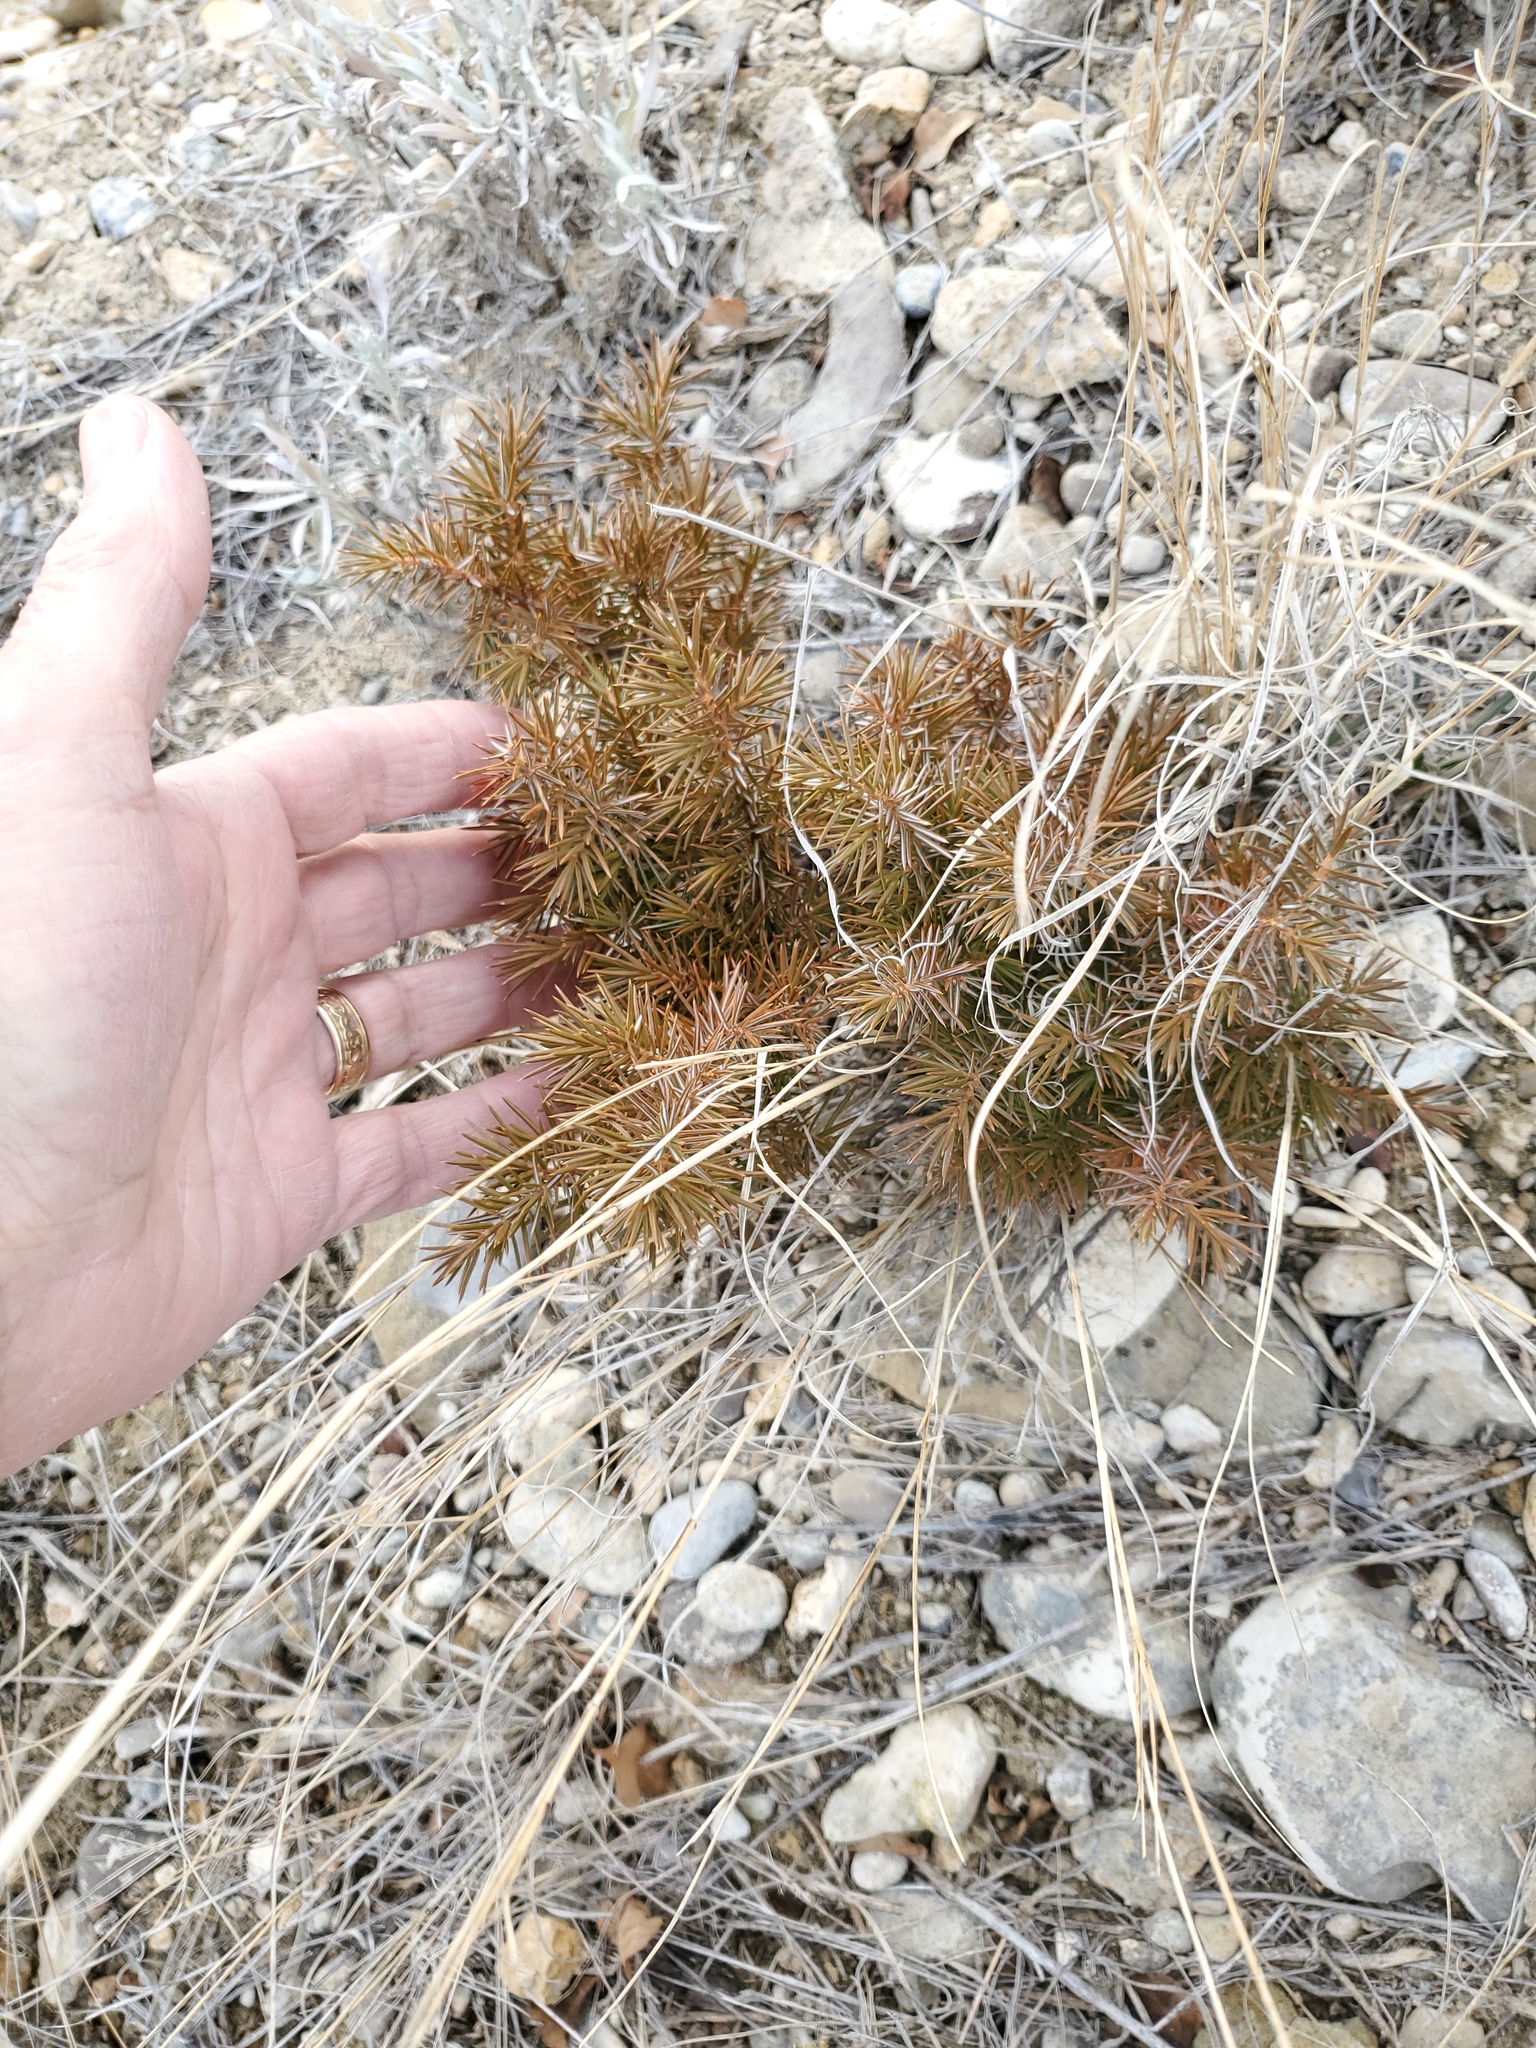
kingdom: Plantae
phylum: Tracheophyta
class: Pinopsida
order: Pinales
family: Cupressaceae
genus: Juniperus
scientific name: Juniperus communis
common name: Common juniper
